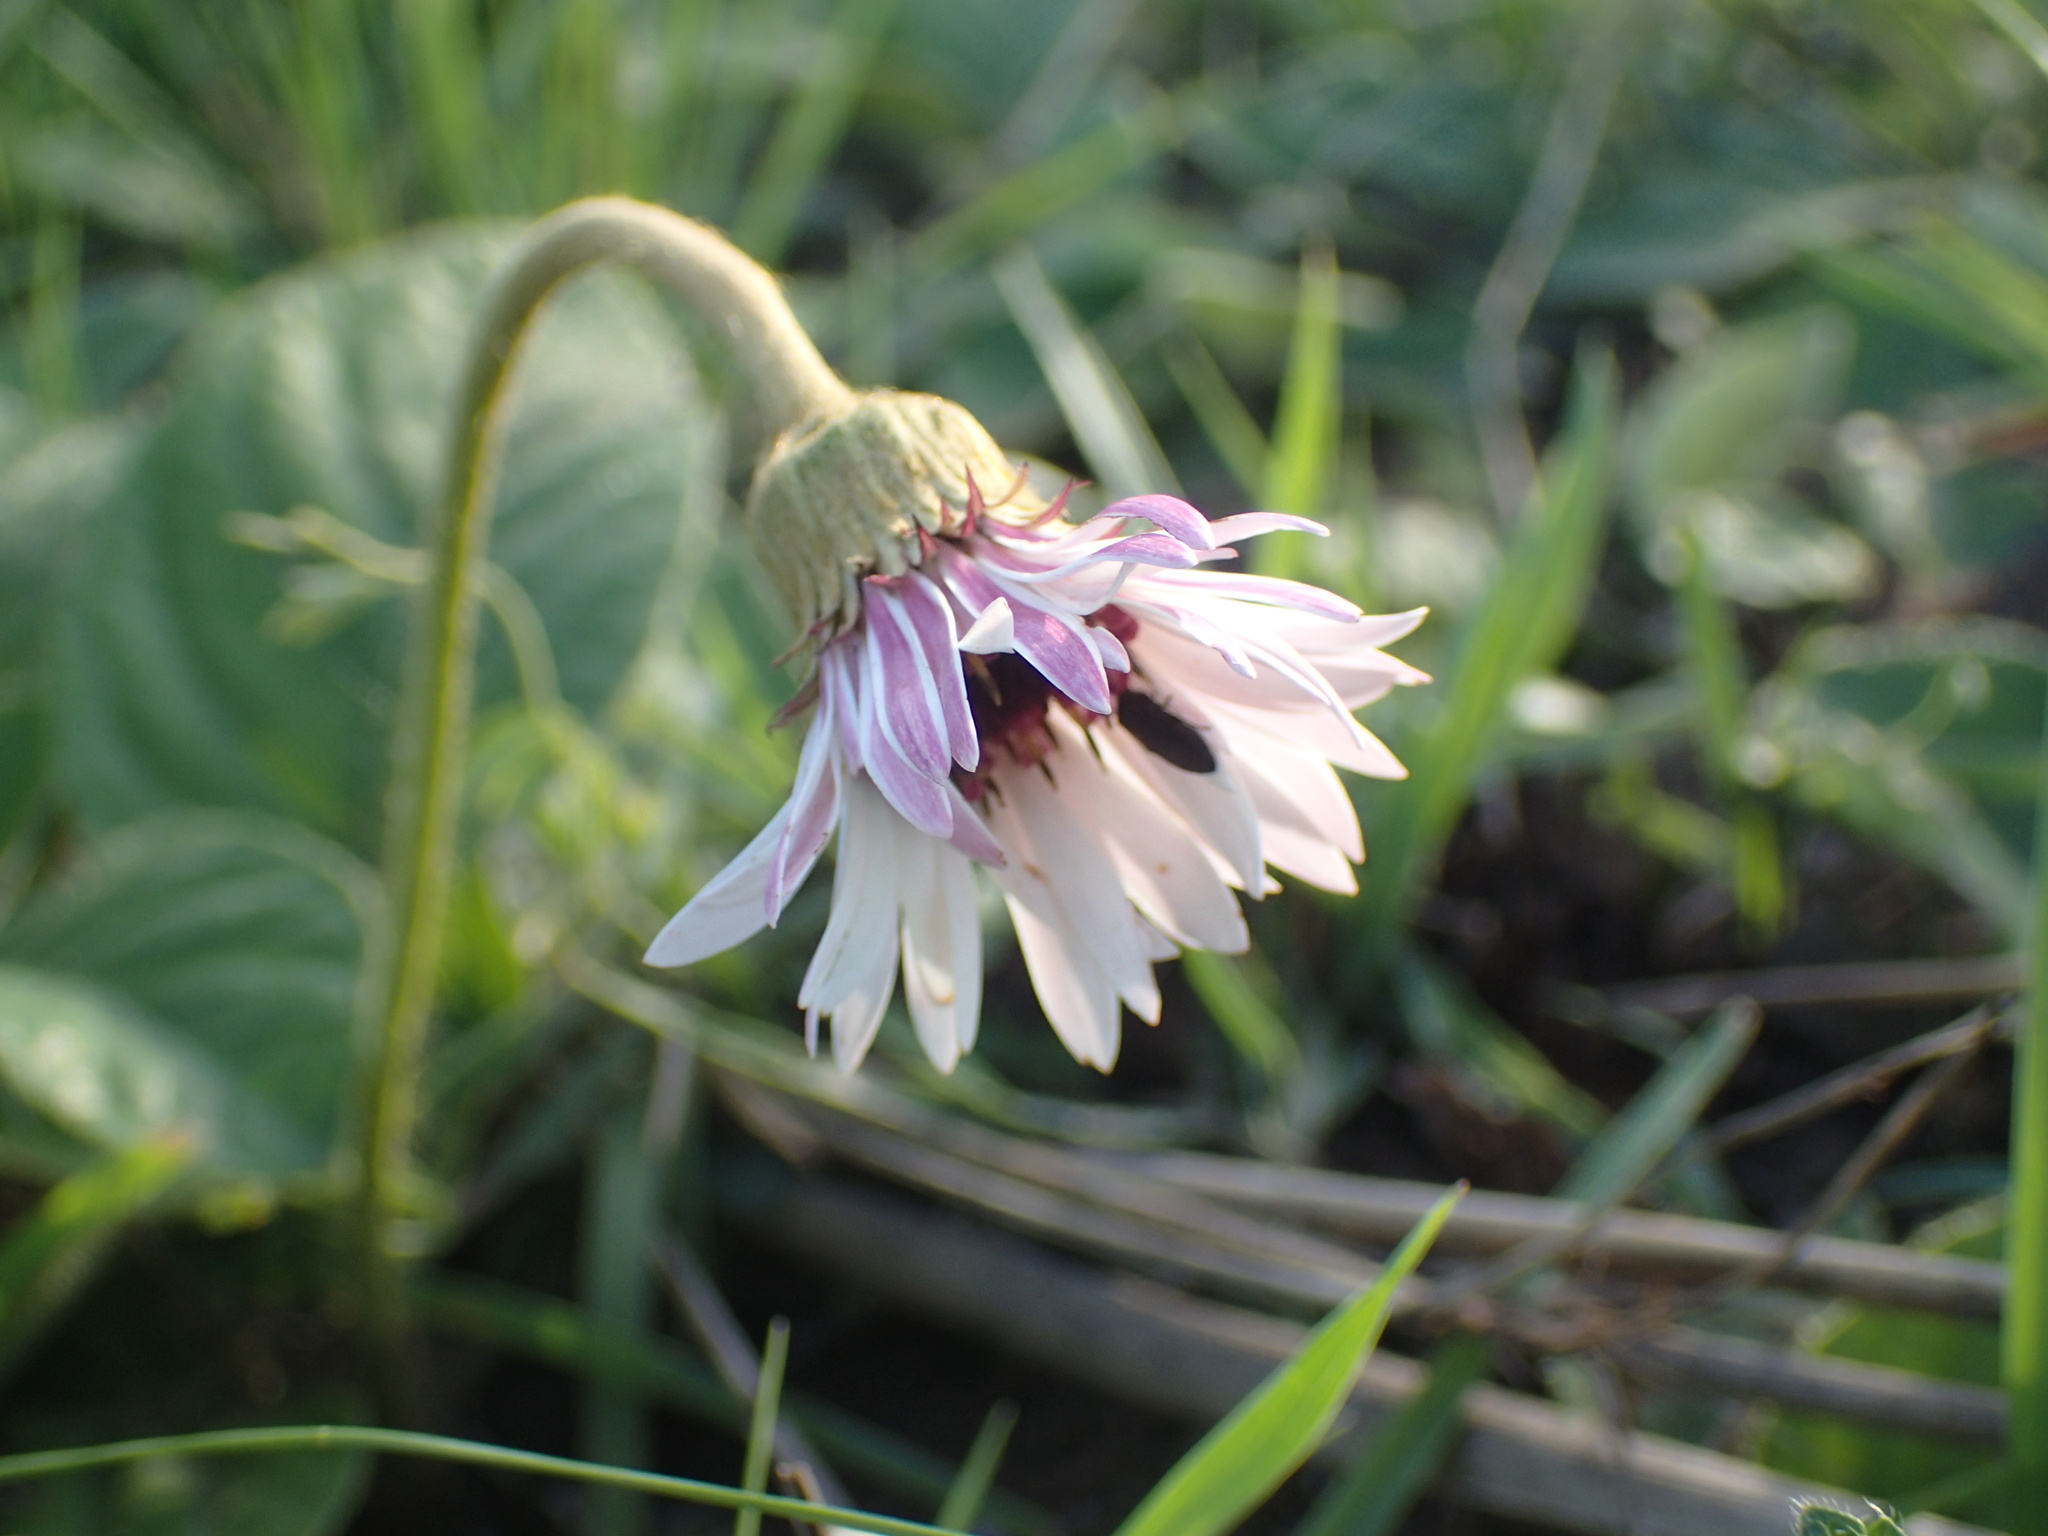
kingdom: Plantae
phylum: Tracheophyta
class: Magnoliopsida
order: Asterales
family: Asteraceae
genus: Gerbera
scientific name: Gerbera ambigua
